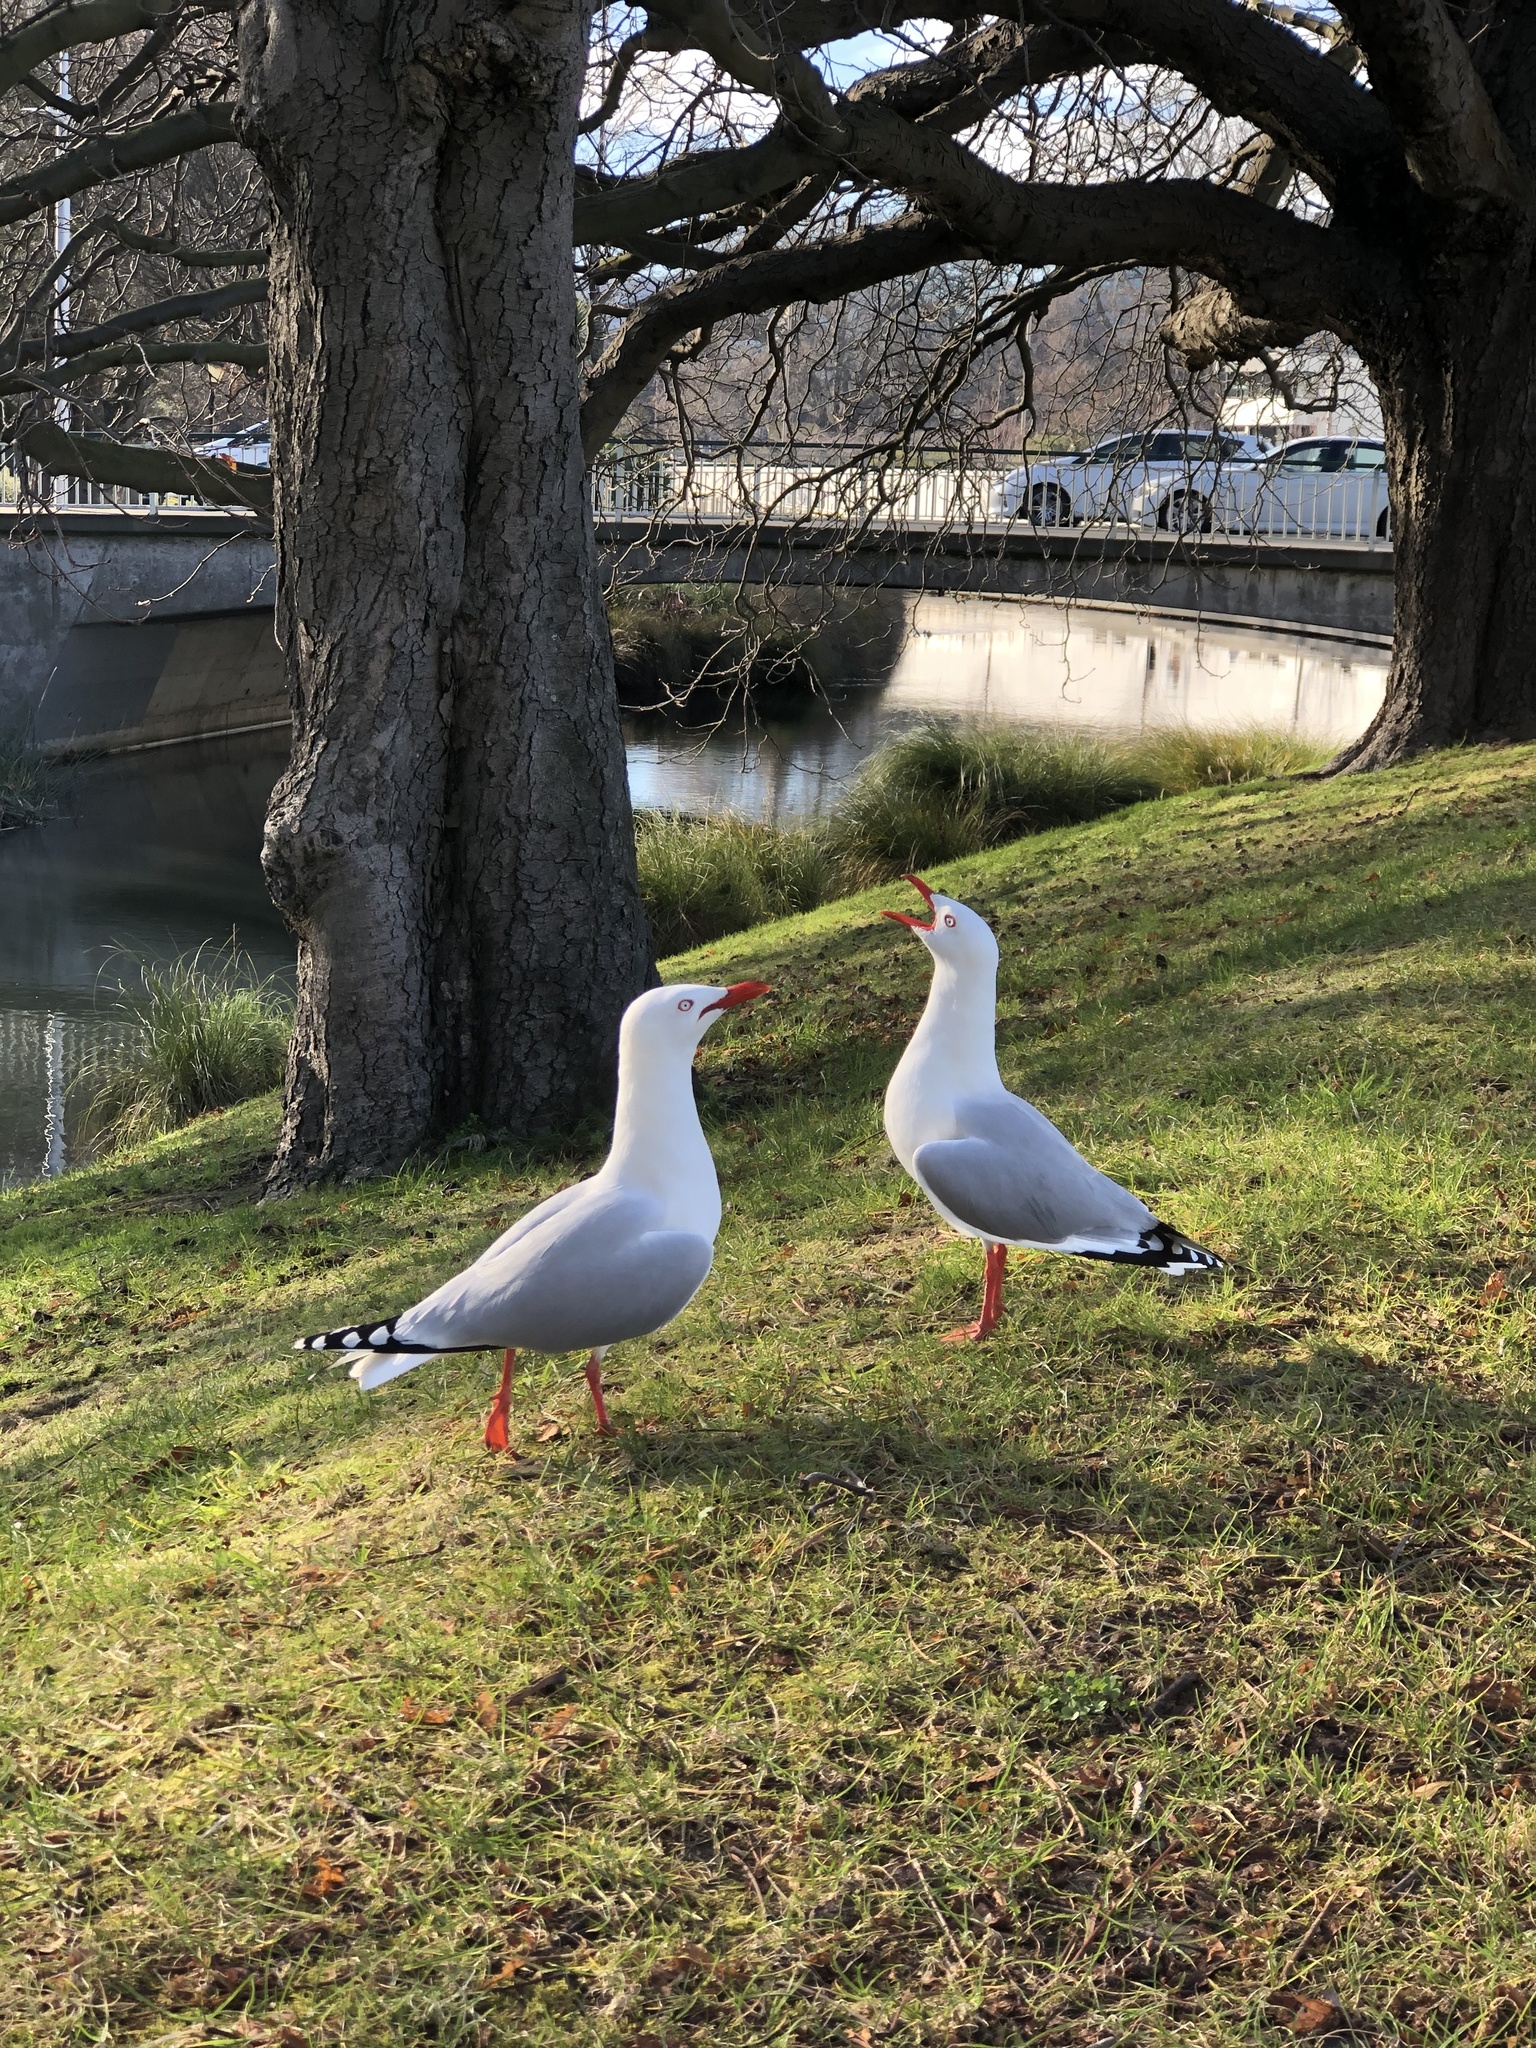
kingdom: Animalia
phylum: Chordata
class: Aves
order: Charadriiformes
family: Laridae
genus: Chroicocephalus
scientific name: Chroicocephalus novaehollandiae
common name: Silver gull
